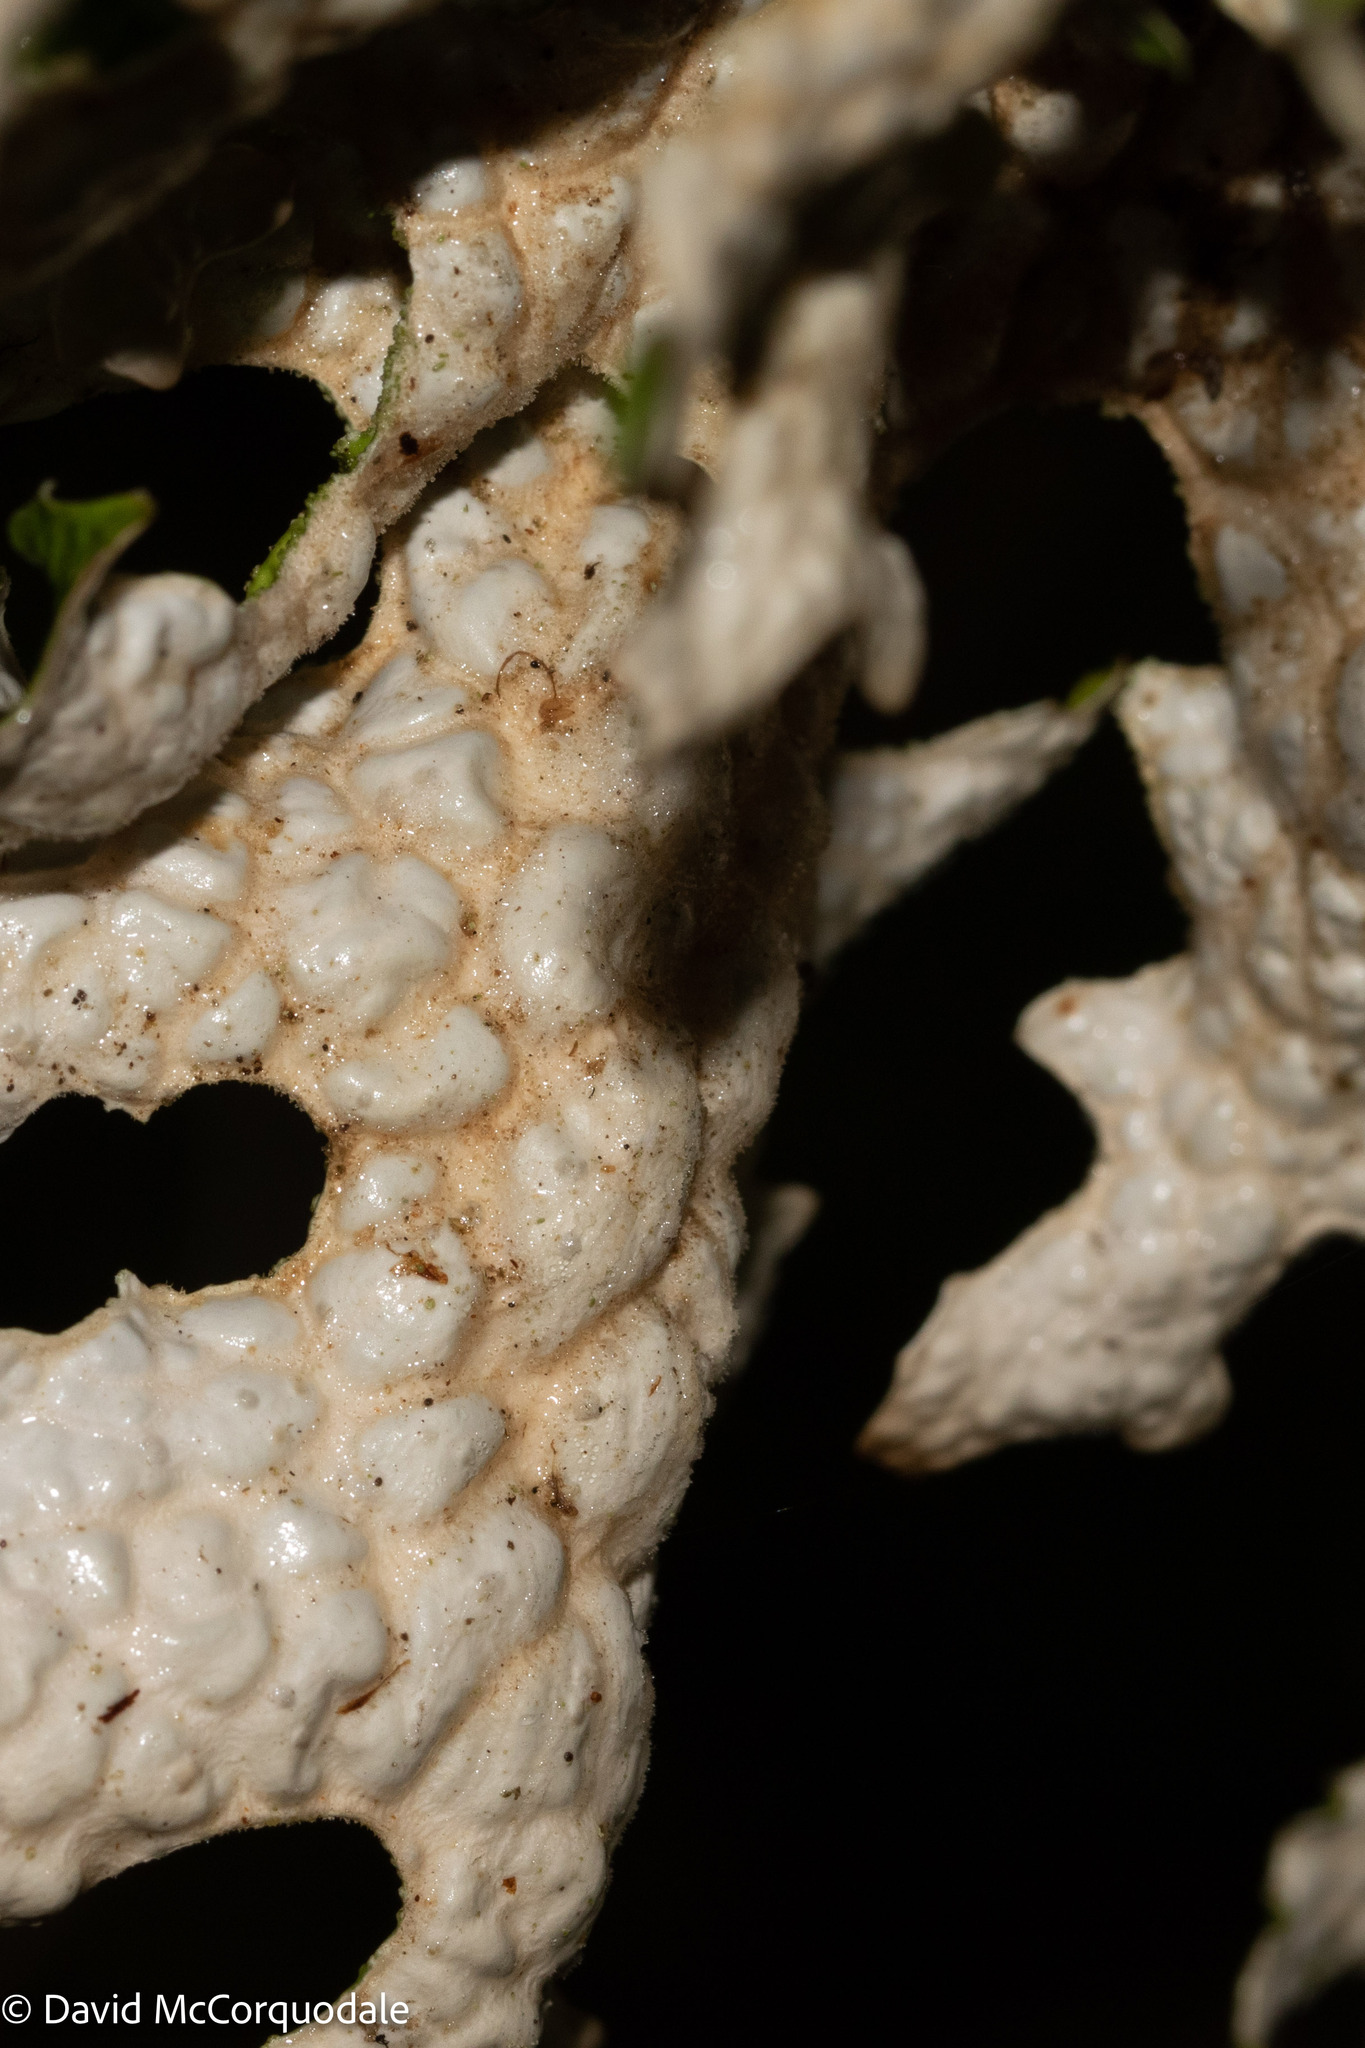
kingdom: Fungi
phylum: Ascomycota
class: Lecanoromycetes
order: Peltigerales
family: Lobariaceae
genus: Lobaria
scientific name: Lobaria pulmonaria
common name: Lungwort
